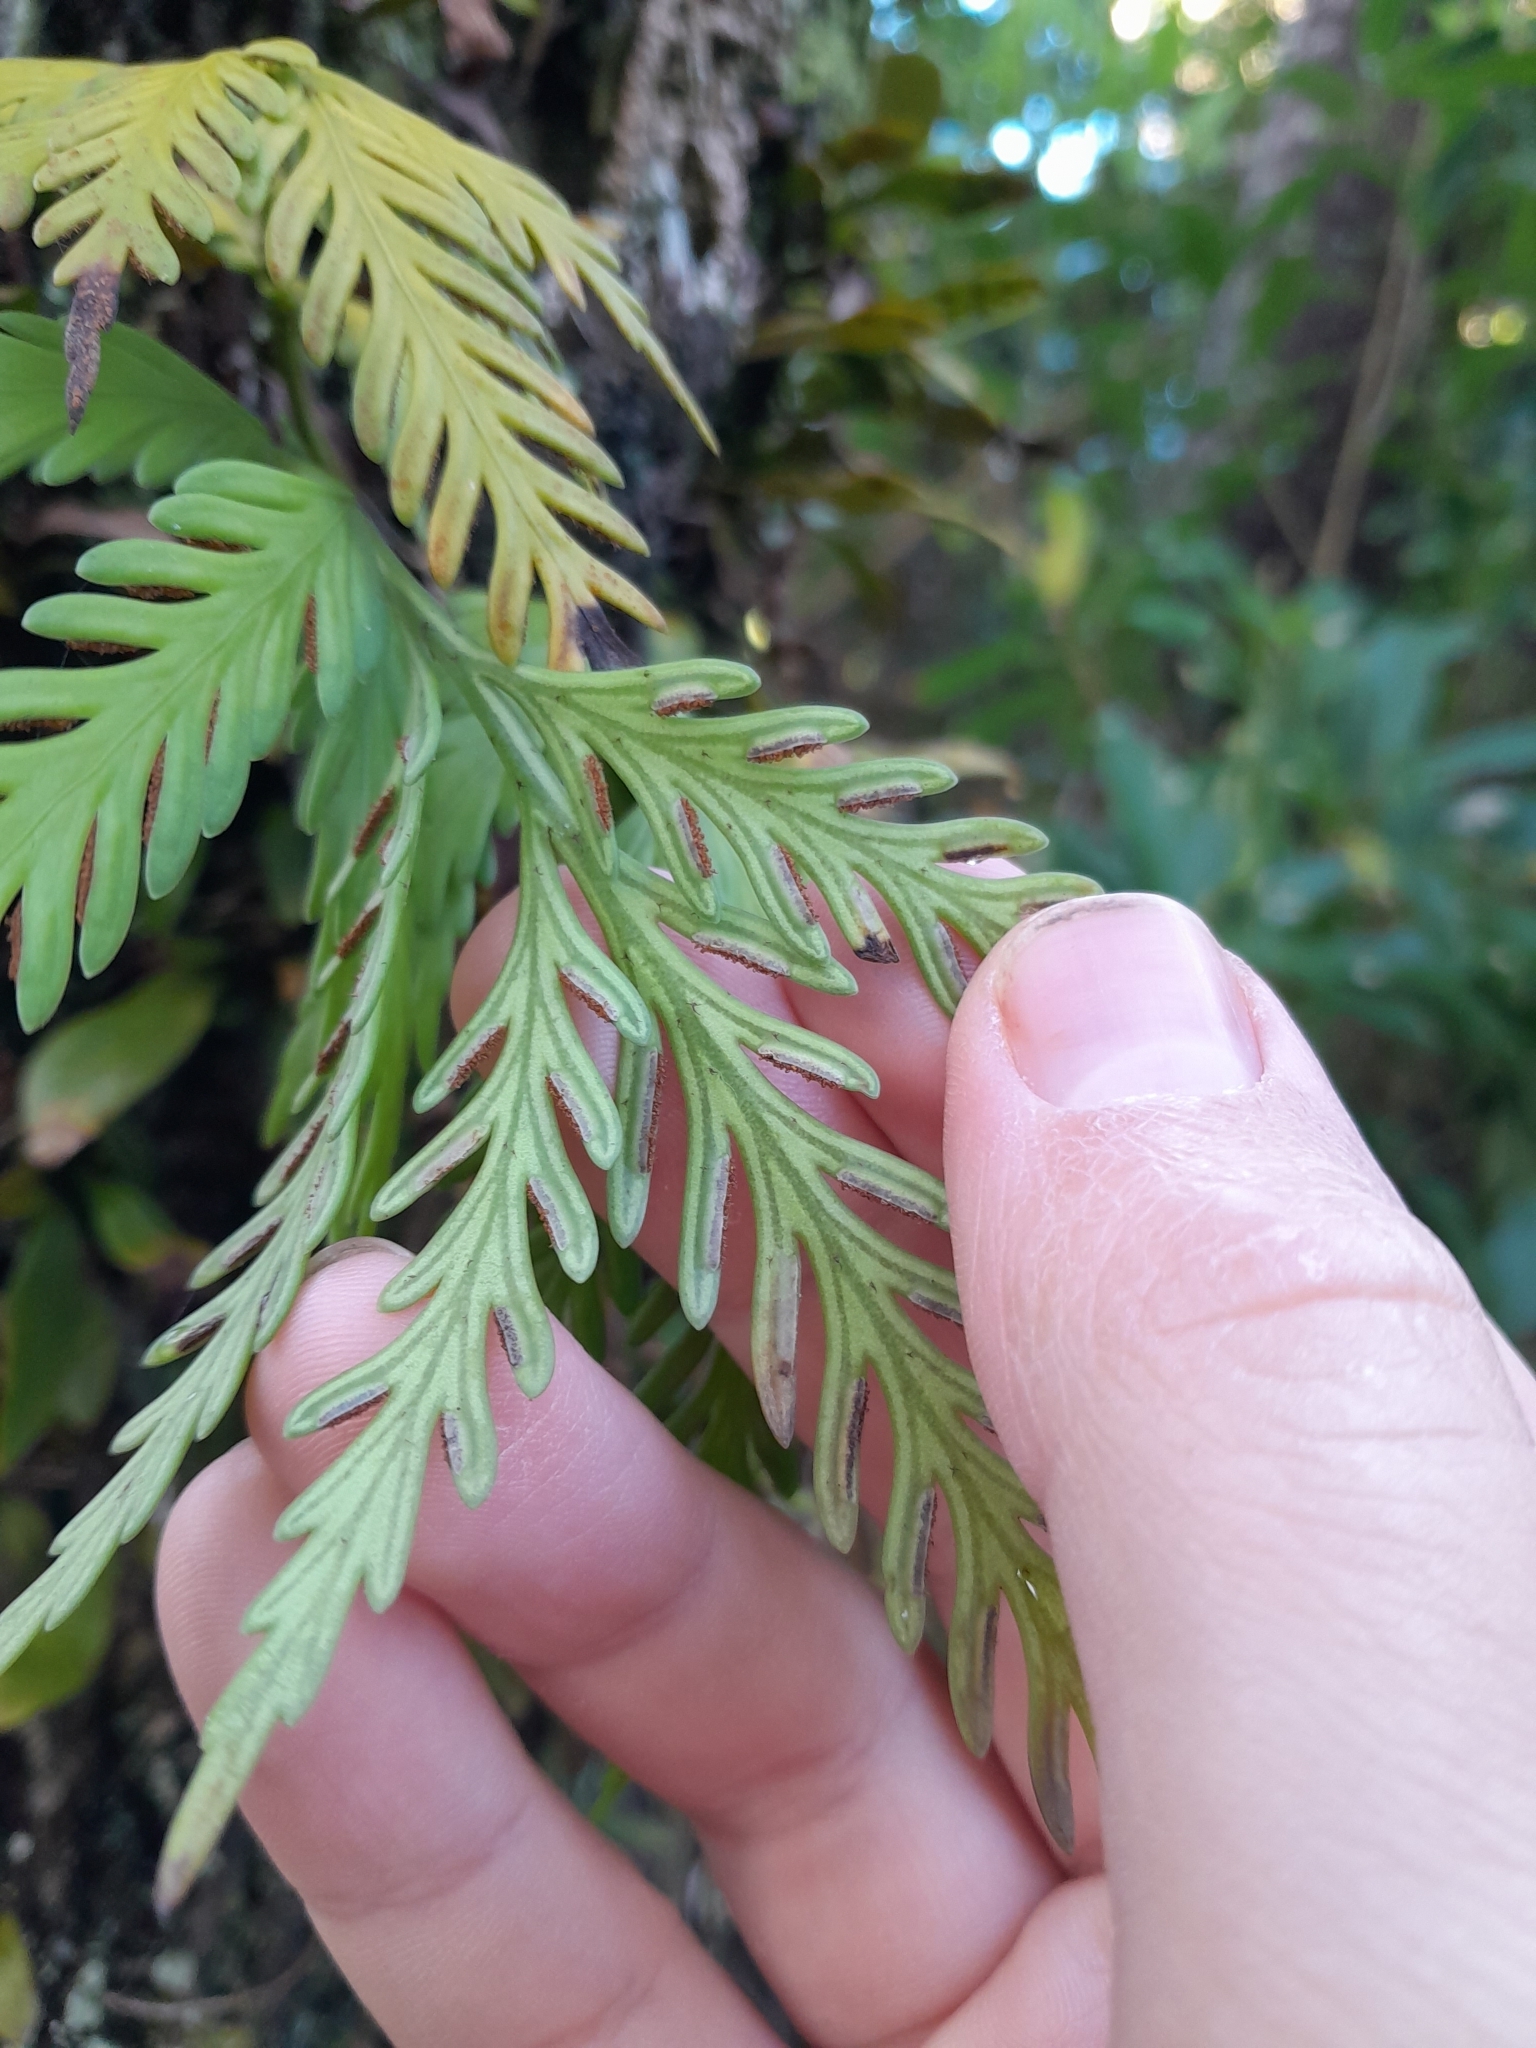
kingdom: Plantae
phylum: Tracheophyta
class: Polypodiopsida
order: Polypodiales
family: Aspleniaceae
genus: Asplenium
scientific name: Asplenium flaccidum
